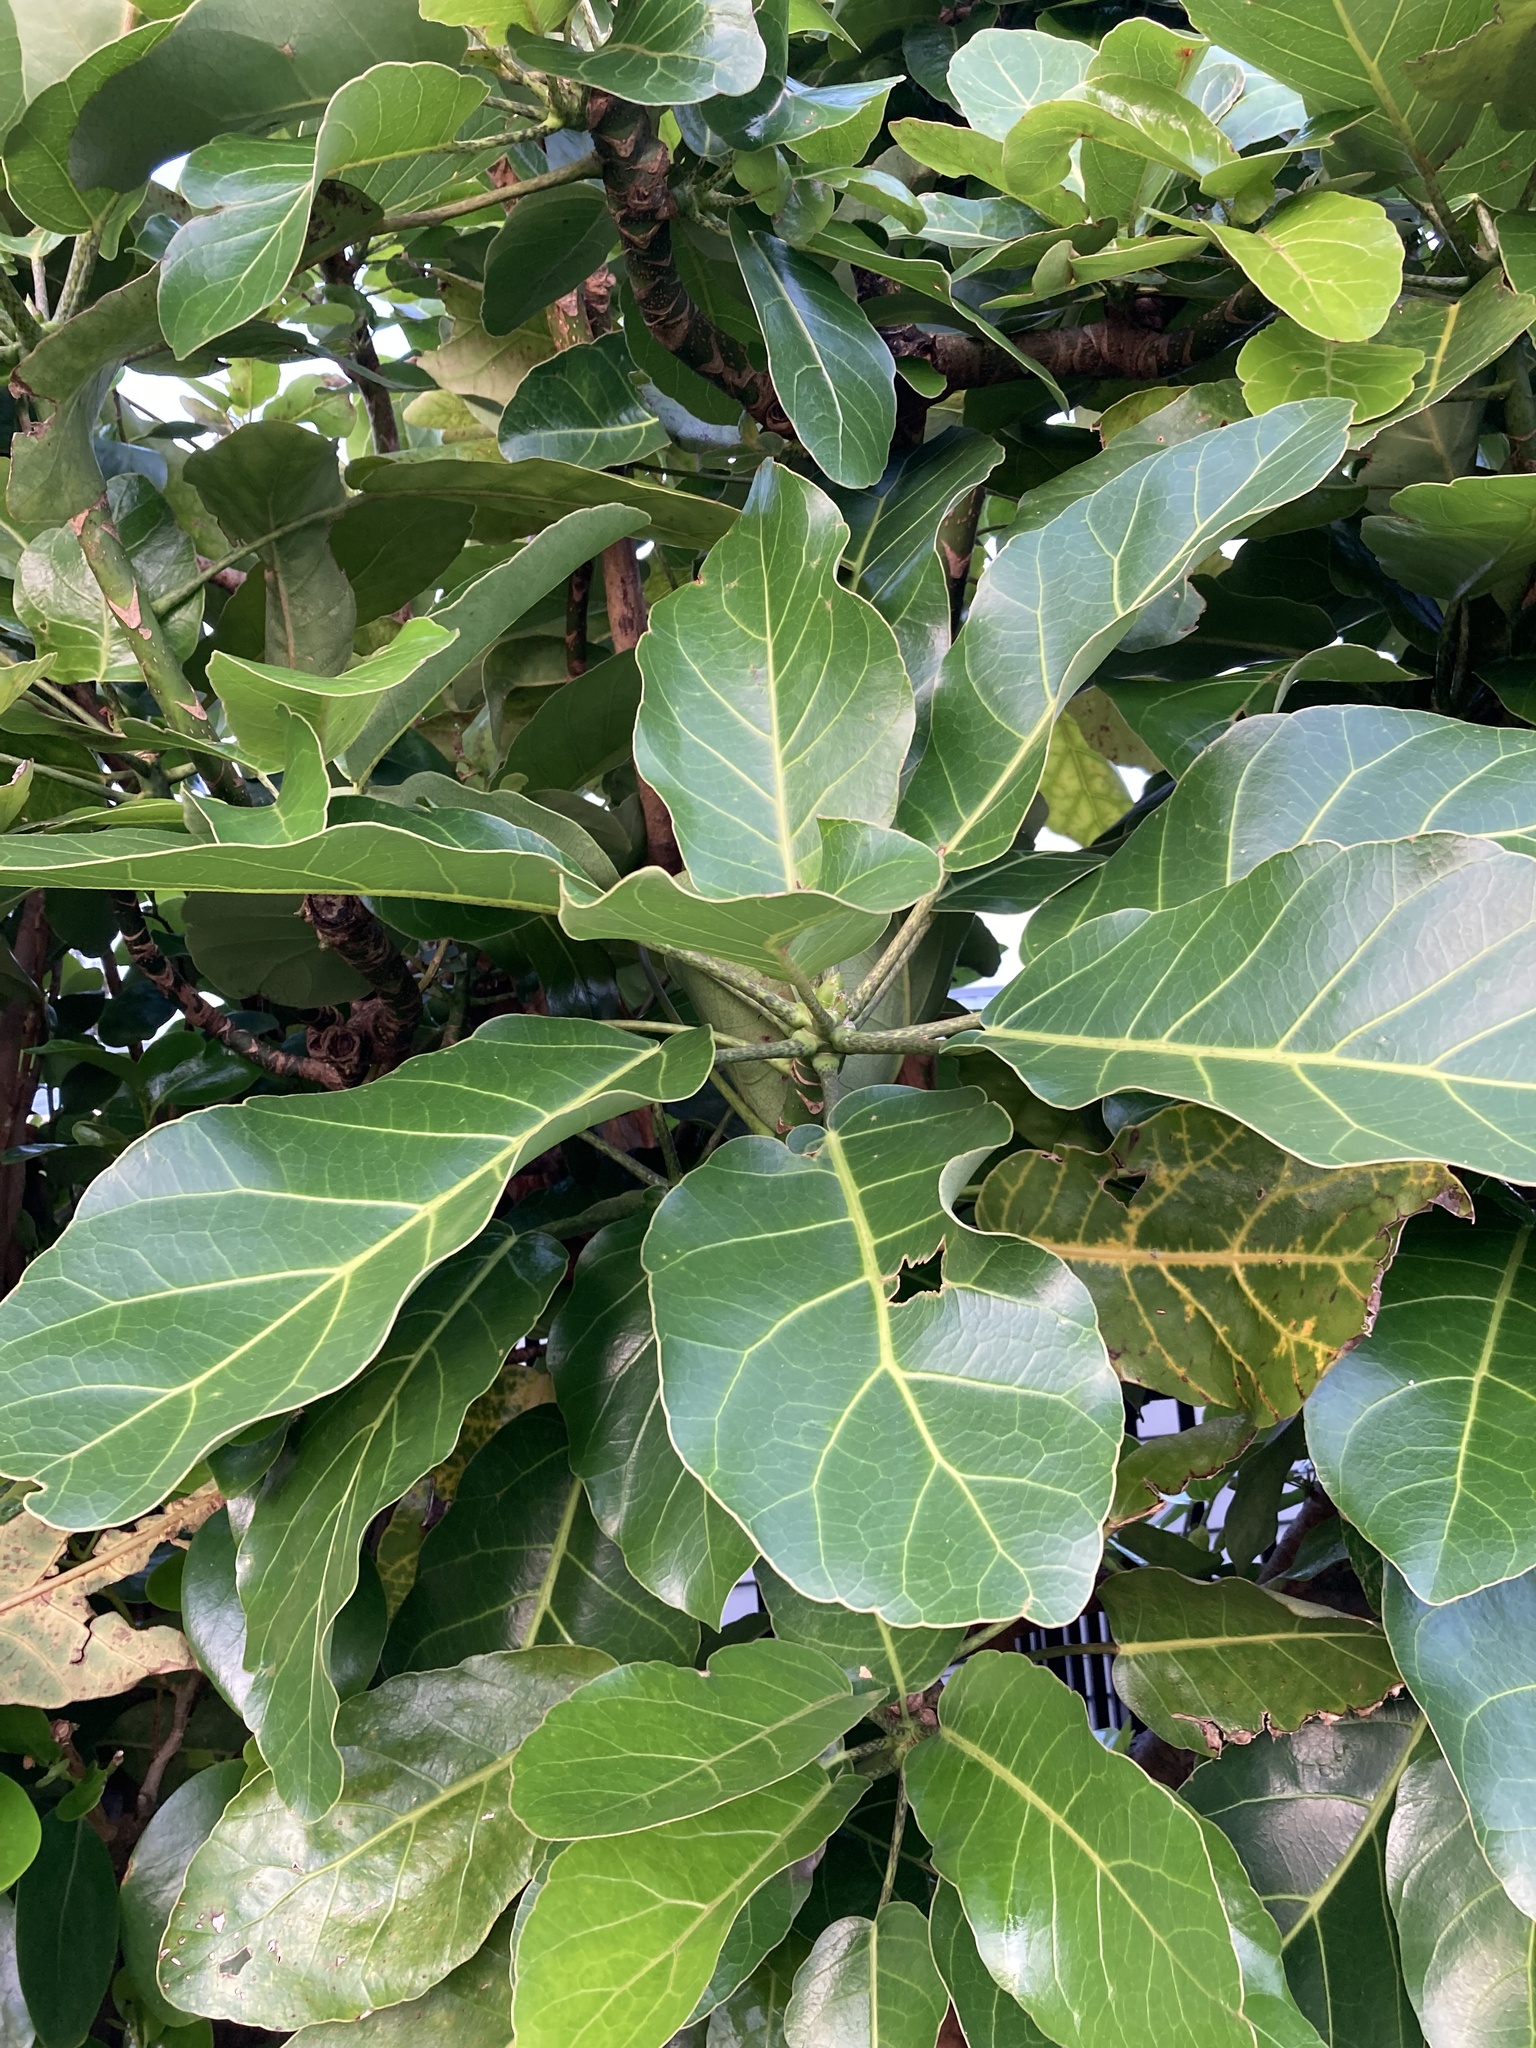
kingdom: Plantae
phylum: Tracheophyta
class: Magnoliopsida
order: Apiales
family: Araliaceae
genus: Meryta
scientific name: Meryta sinclairii
